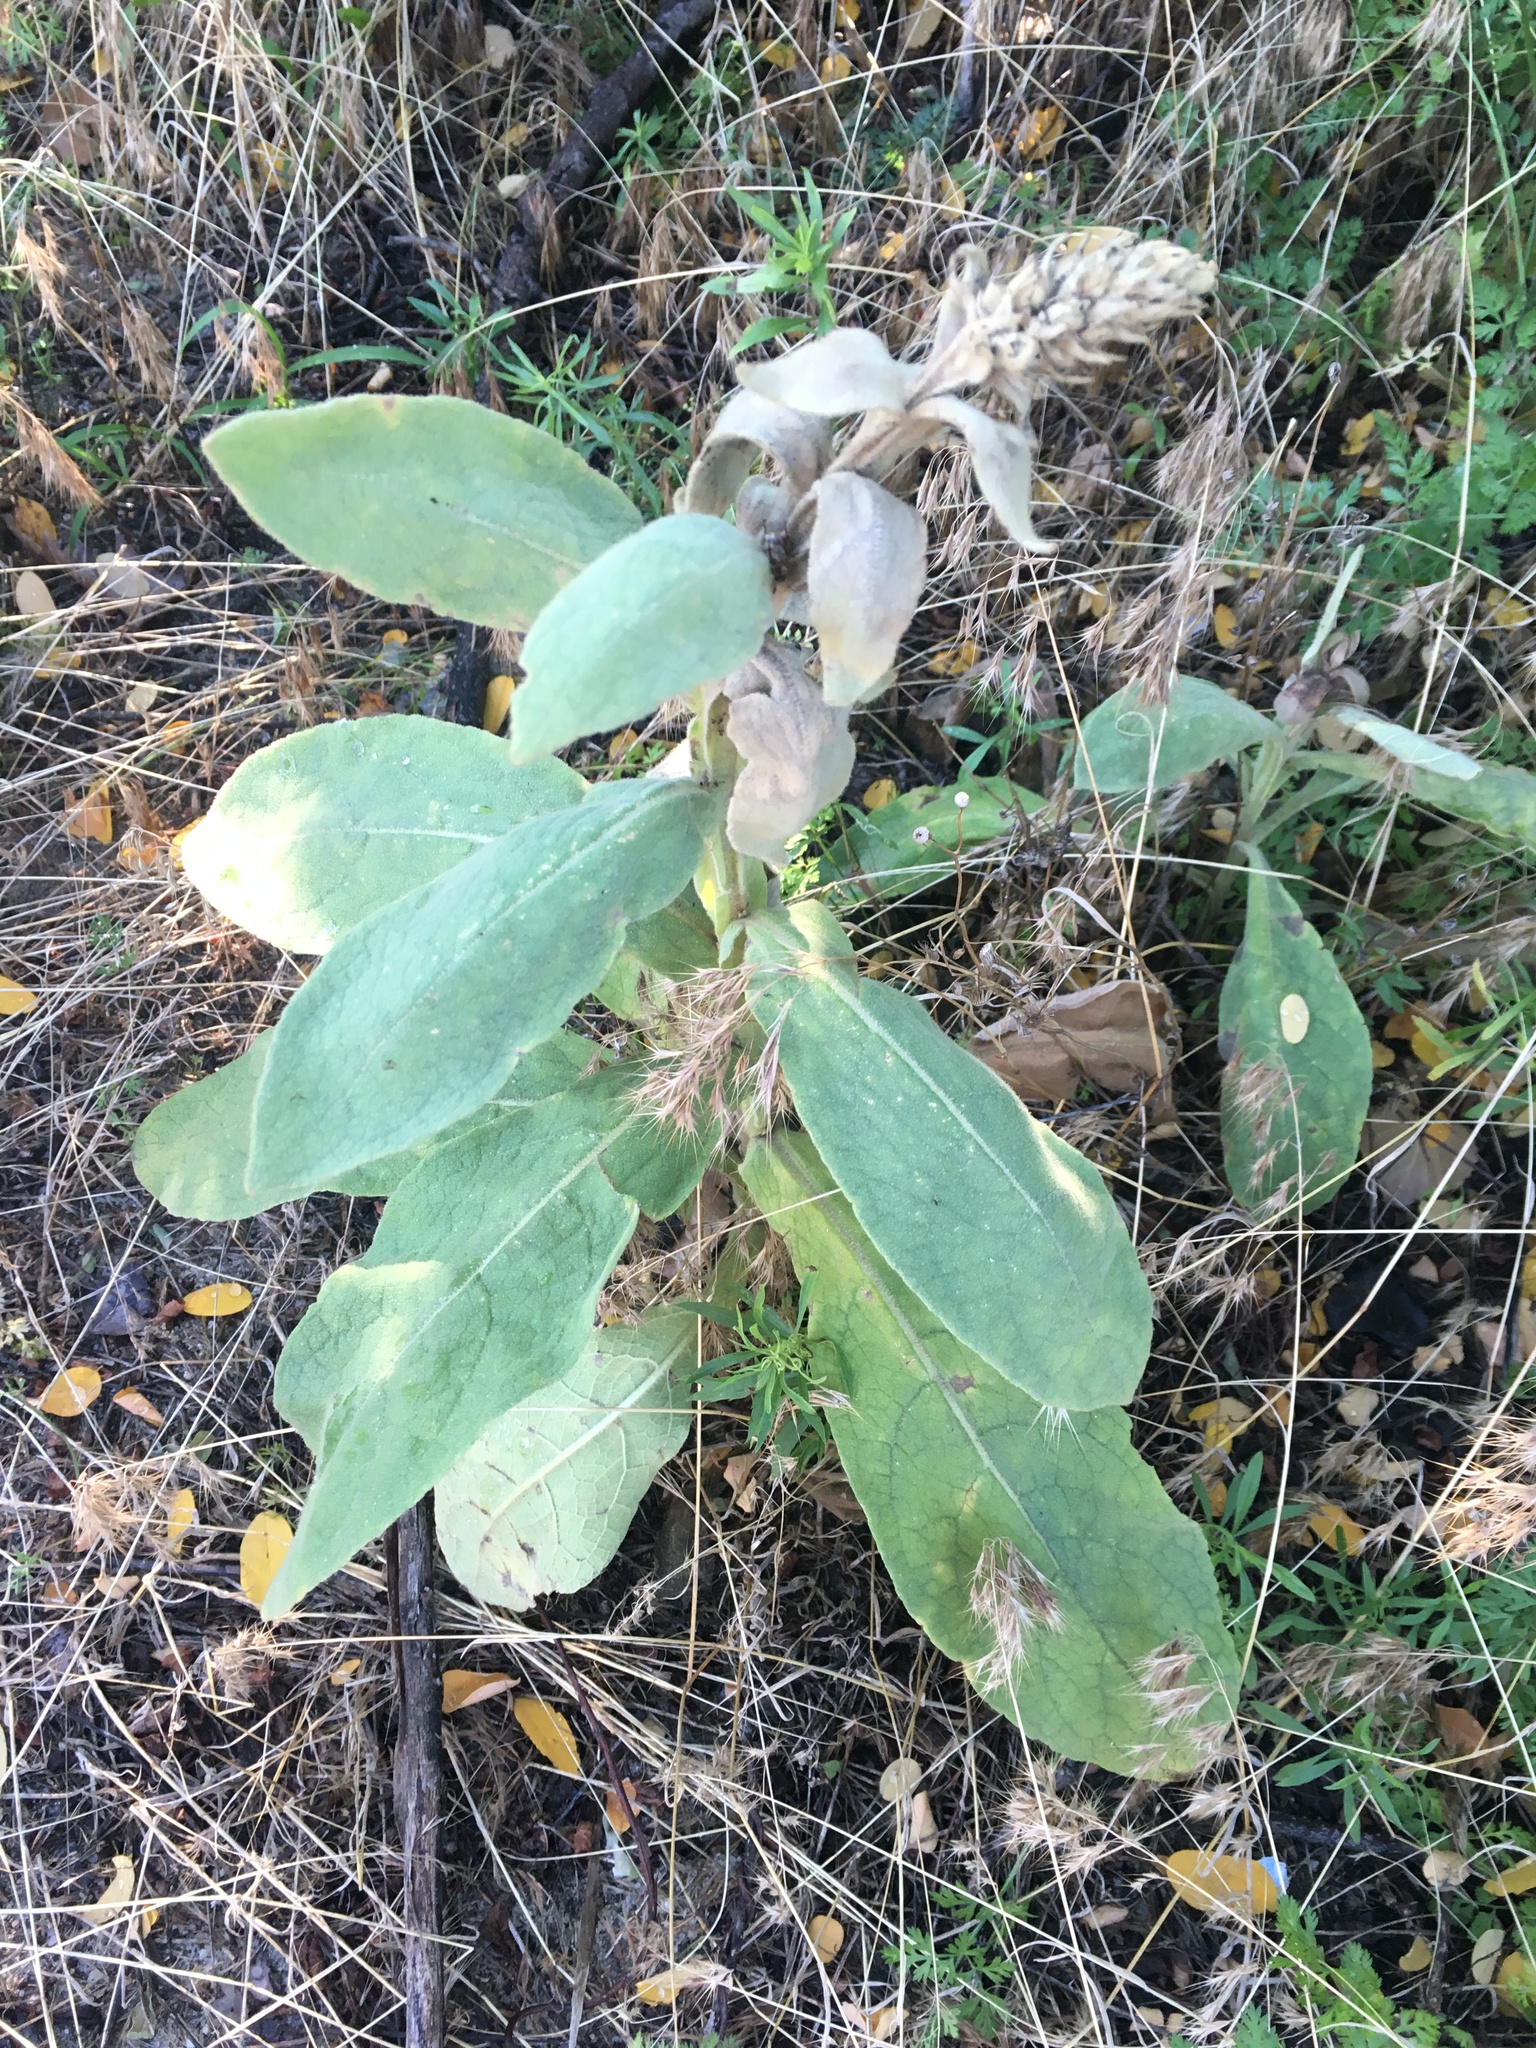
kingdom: Plantae
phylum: Tracheophyta
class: Magnoliopsida
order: Lamiales
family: Scrophulariaceae
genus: Verbascum
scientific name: Verbascum thapsus
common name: Common mullein
